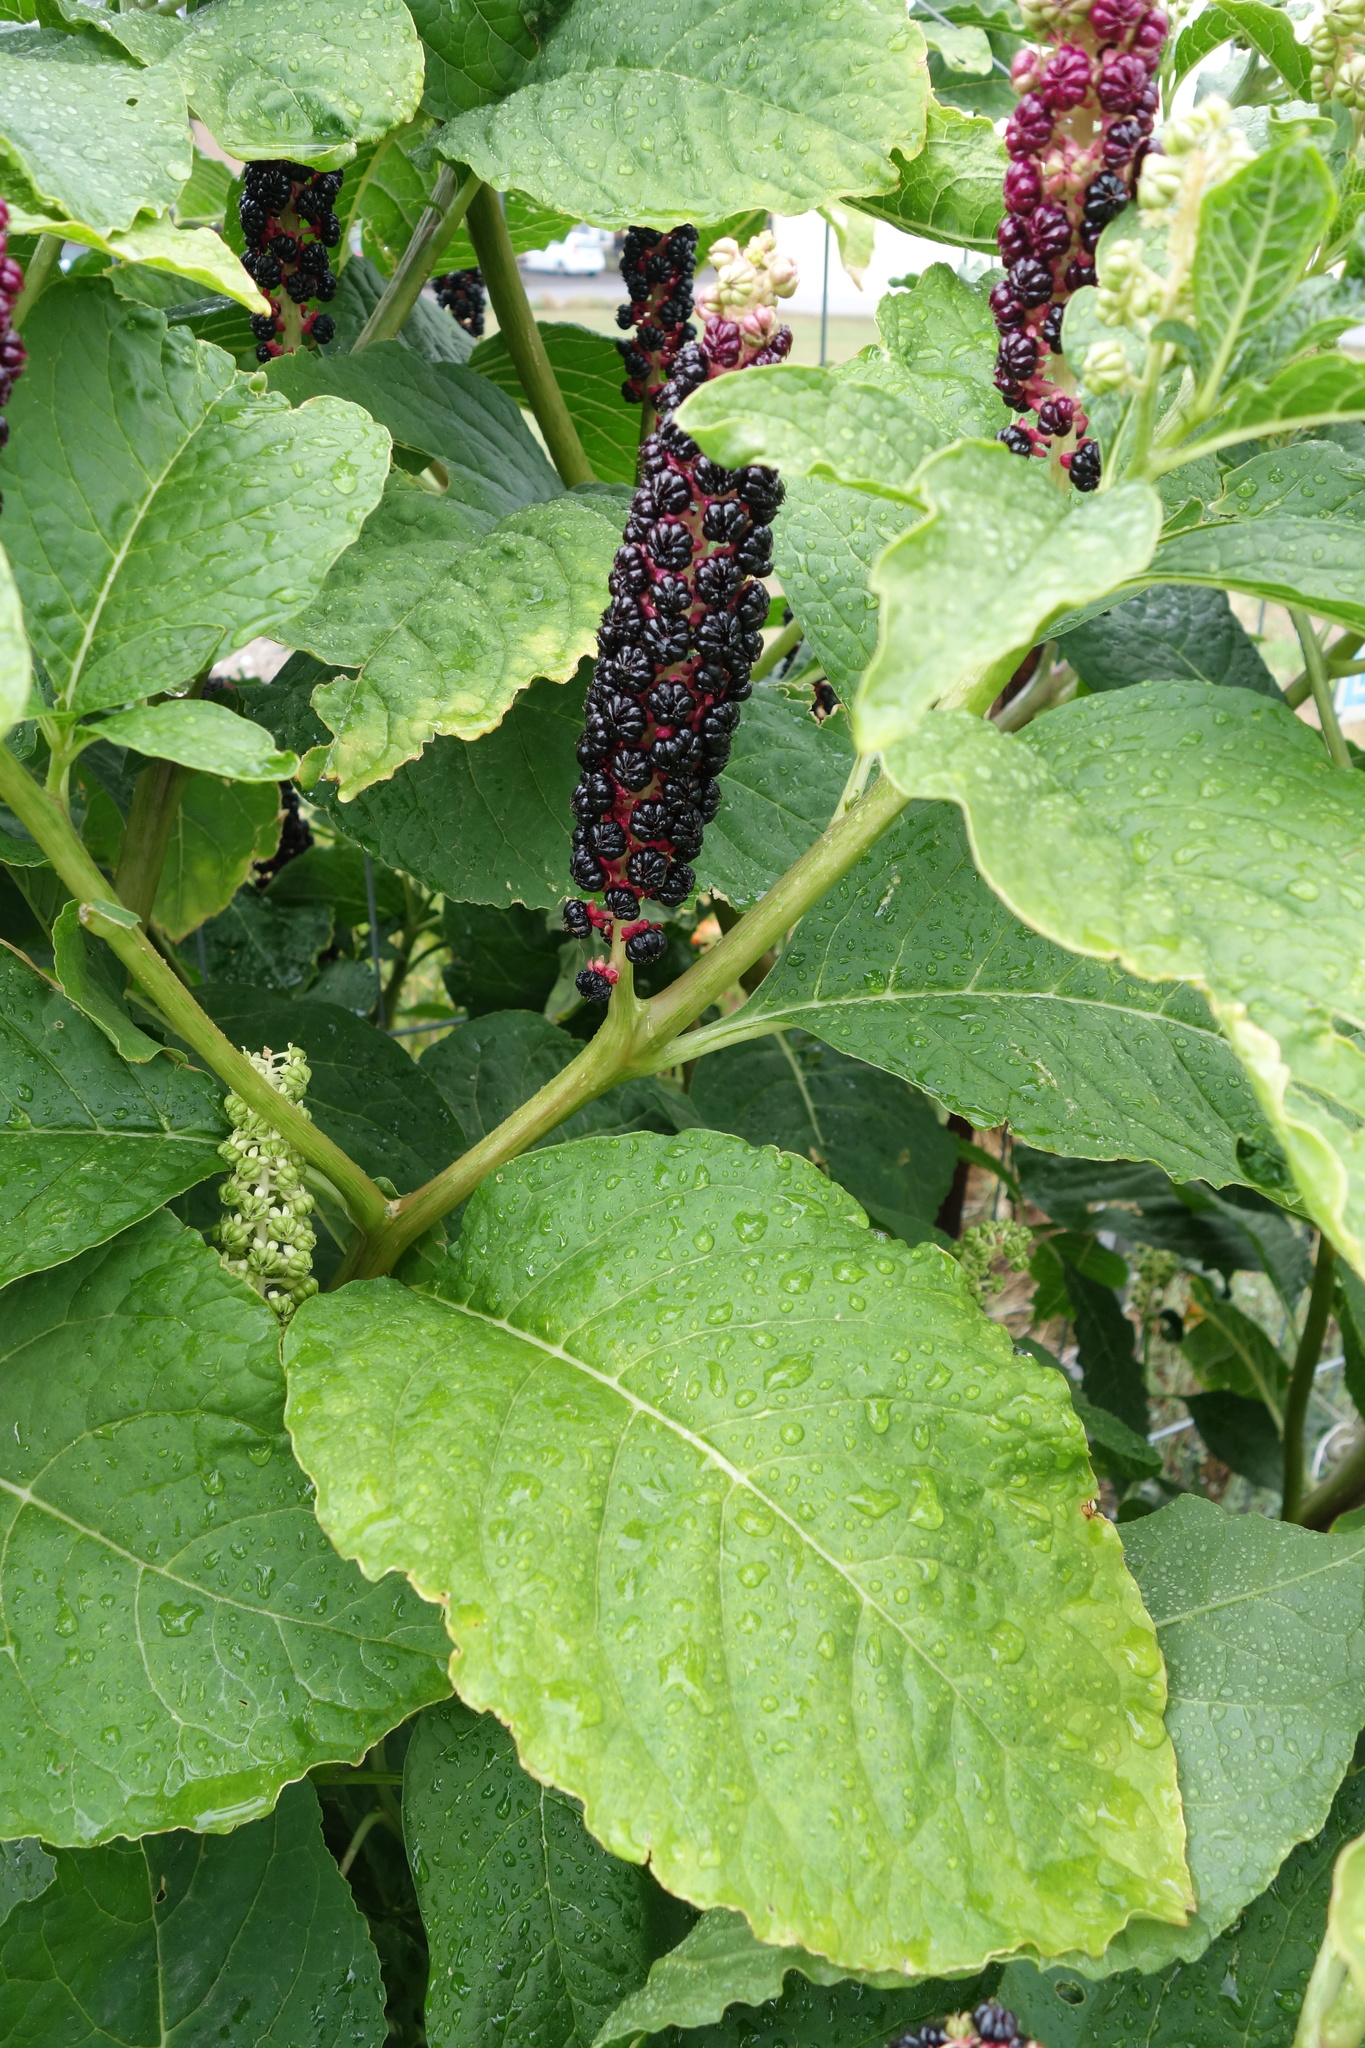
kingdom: Plantae
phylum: Tracheophyta
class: Magnoliopsida
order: Caryophyllales
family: Phytolaccaceae
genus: Phytolacca
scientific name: Phytolacca acinosa
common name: Indian pokeweed
